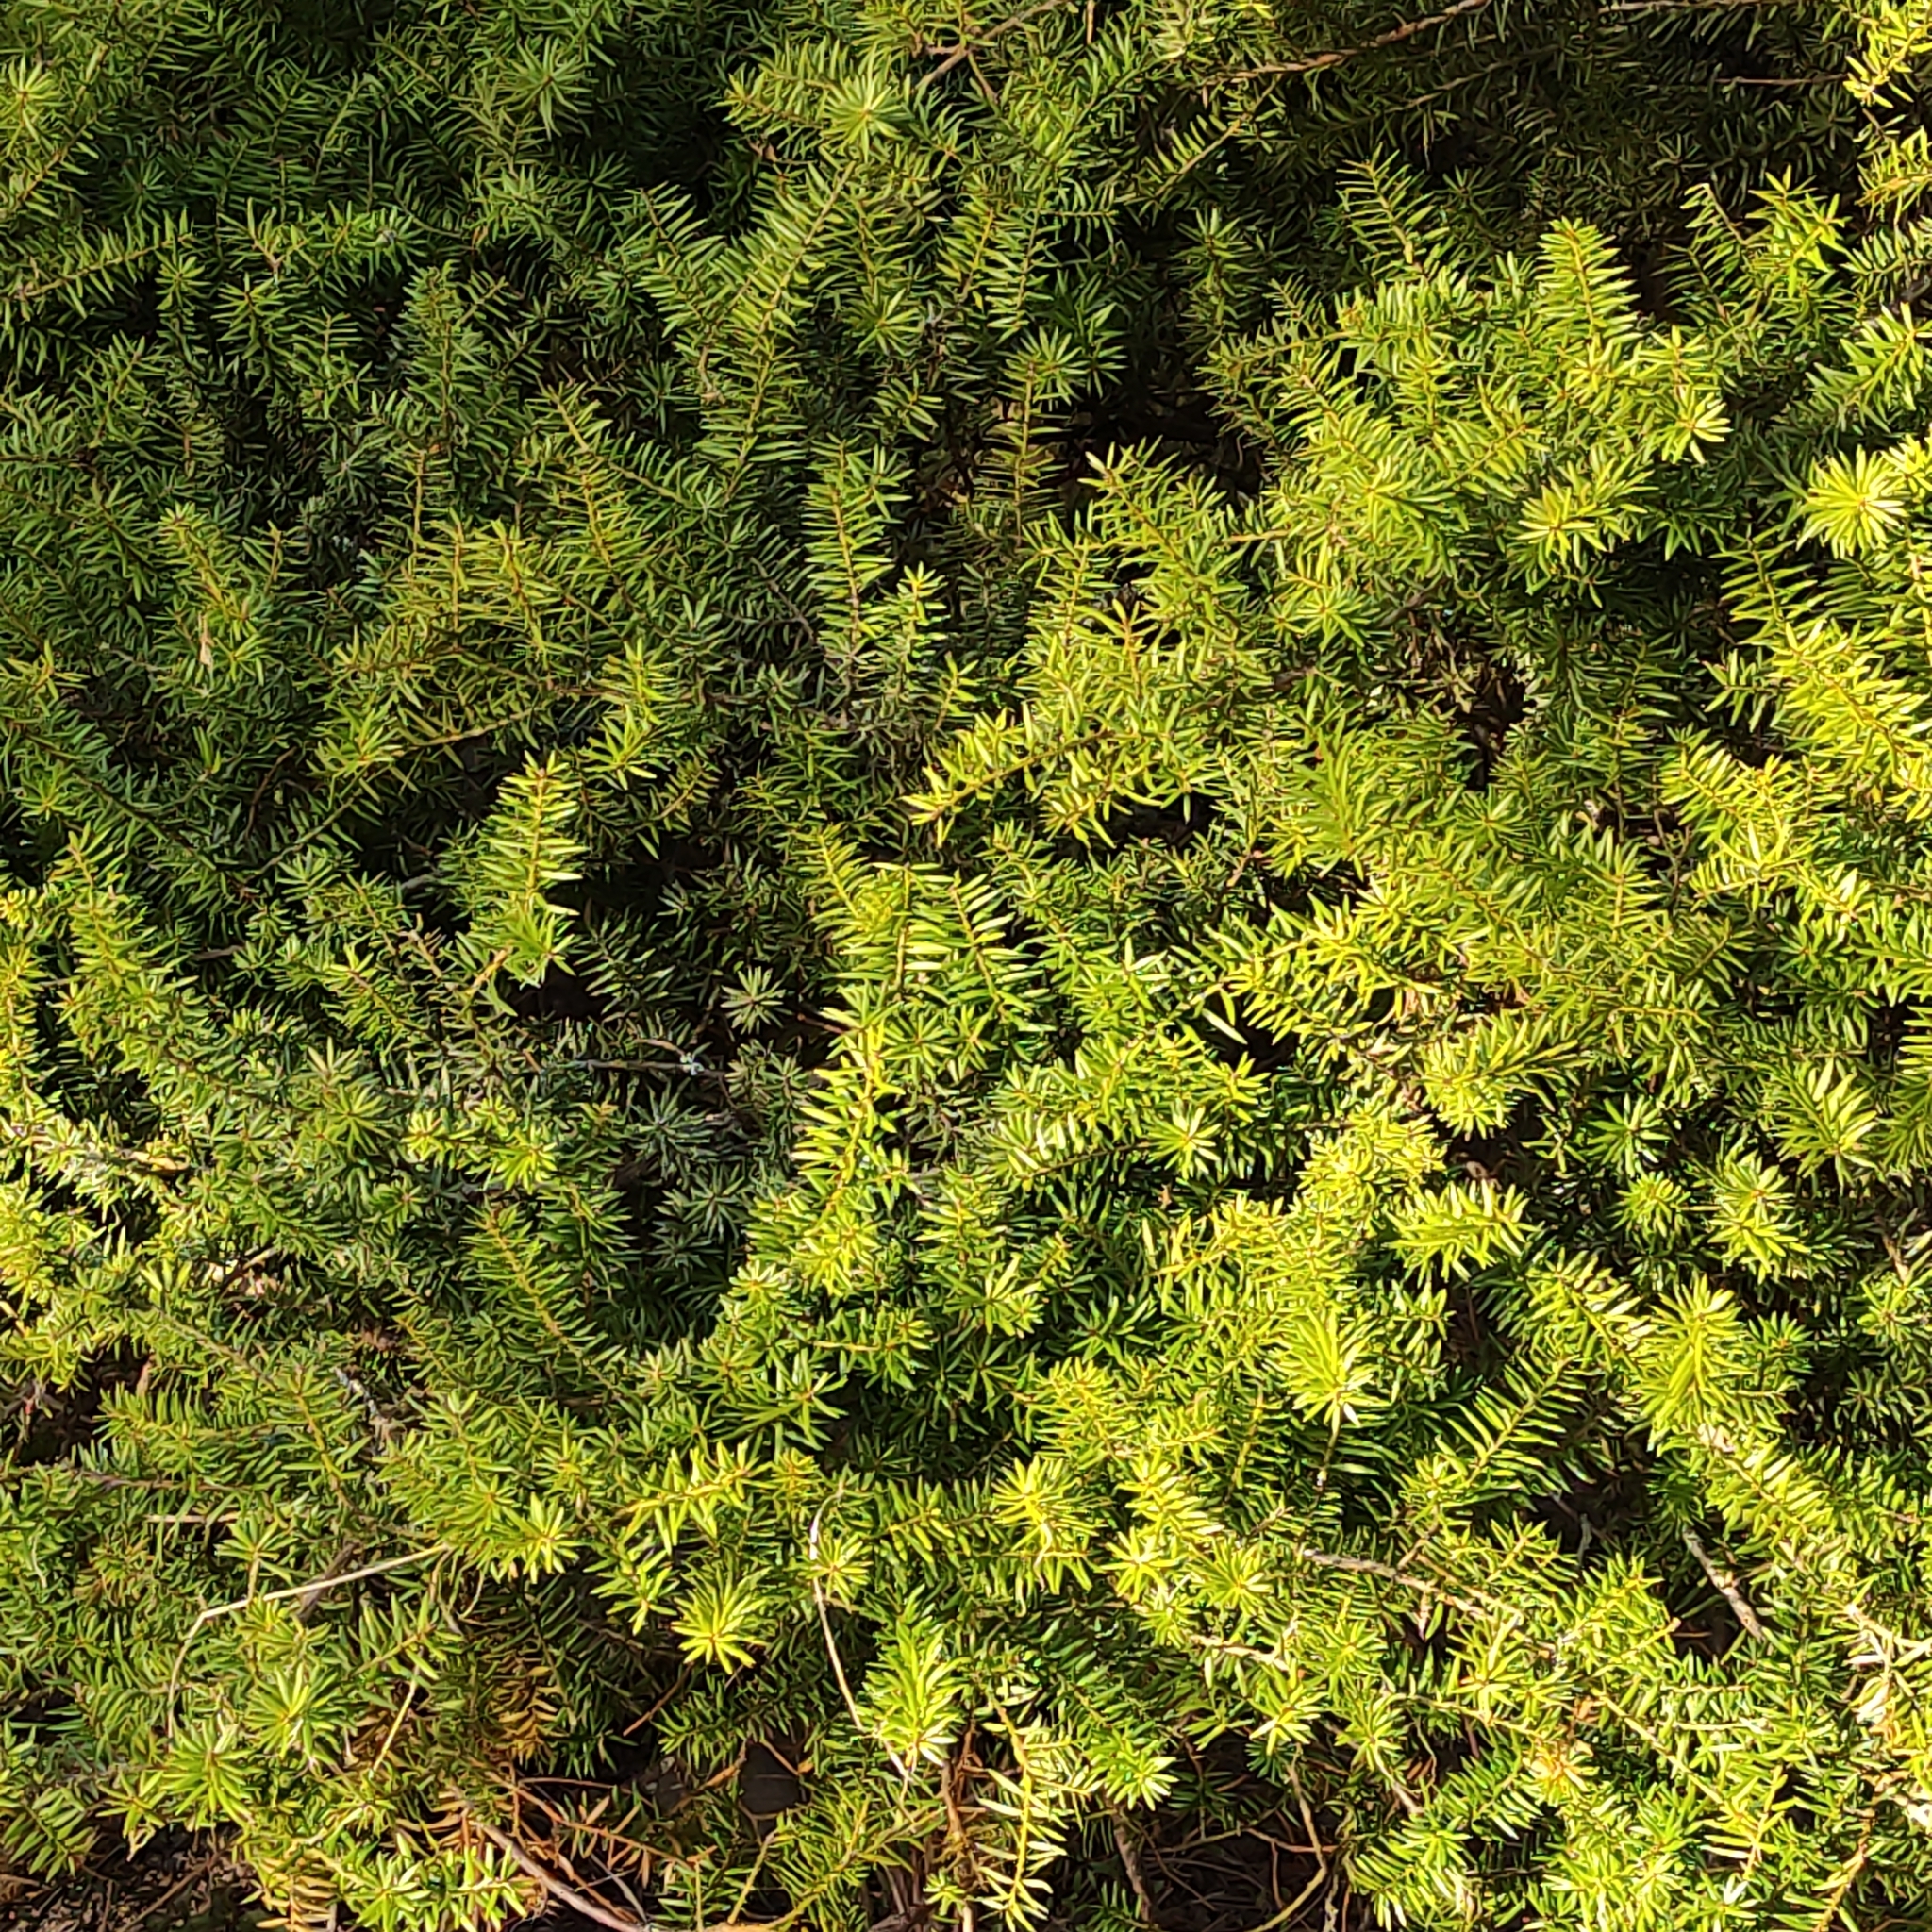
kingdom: Plantae
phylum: Tracheophyta
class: Pinopsida
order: Pinales
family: Podocarpaceae
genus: Podocarpus
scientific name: Podocarpus totara
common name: Totara
